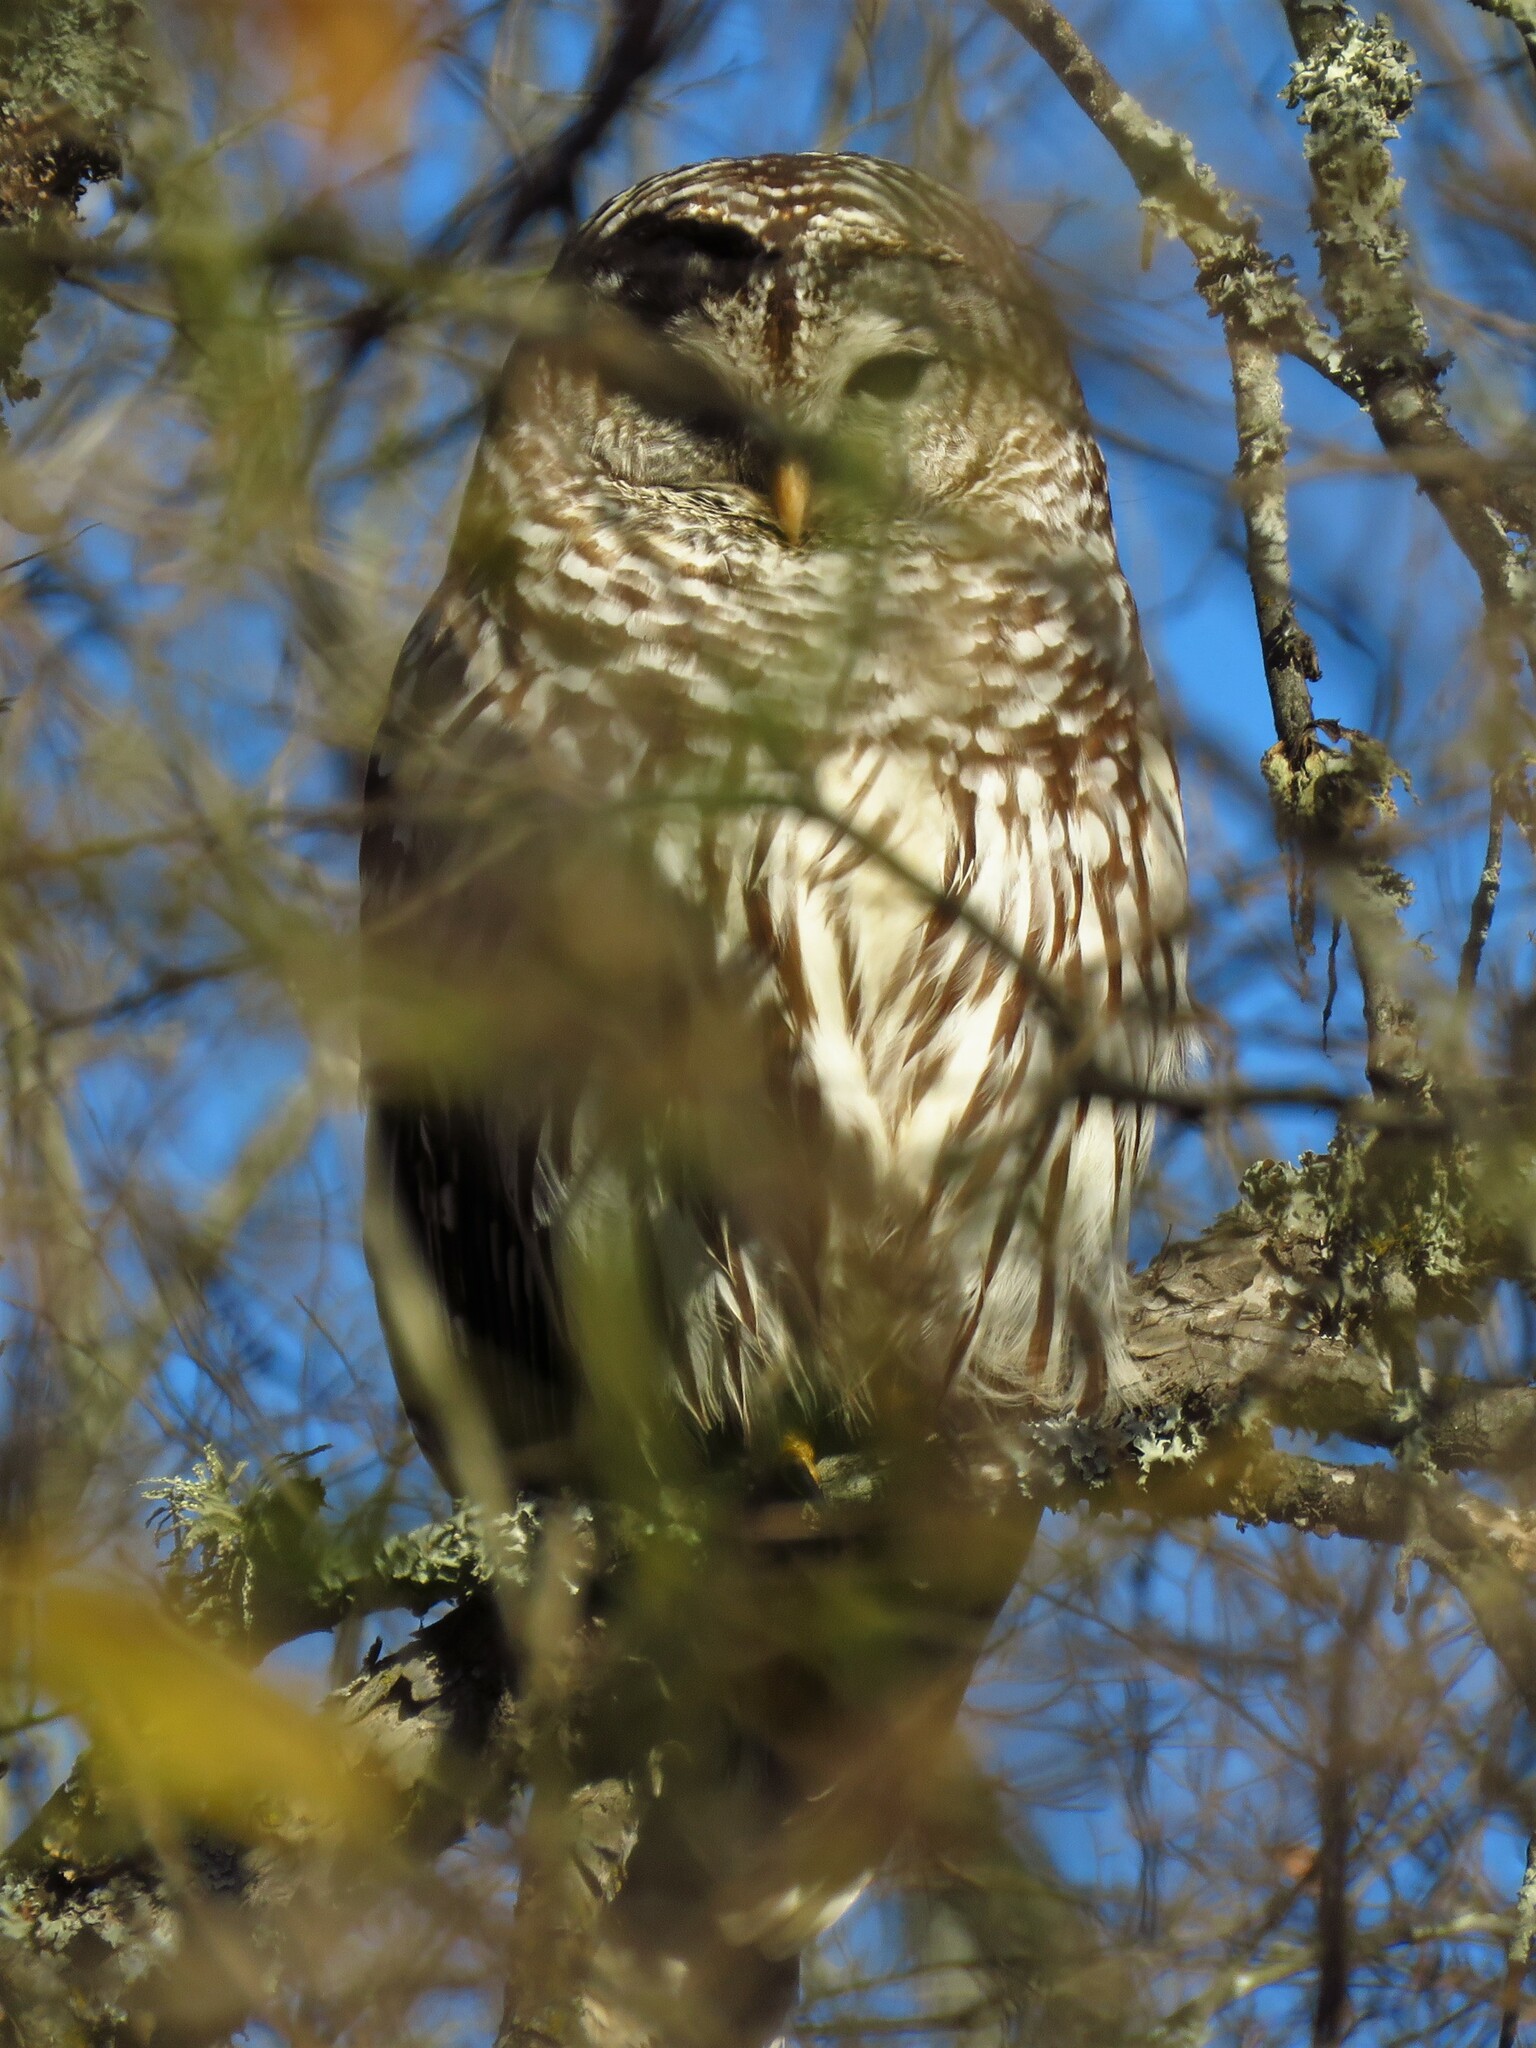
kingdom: Animalia
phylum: Chordata
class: Aves
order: Strigiformes
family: Strigidae
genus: Strix
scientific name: Strix varia
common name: Barred owl
